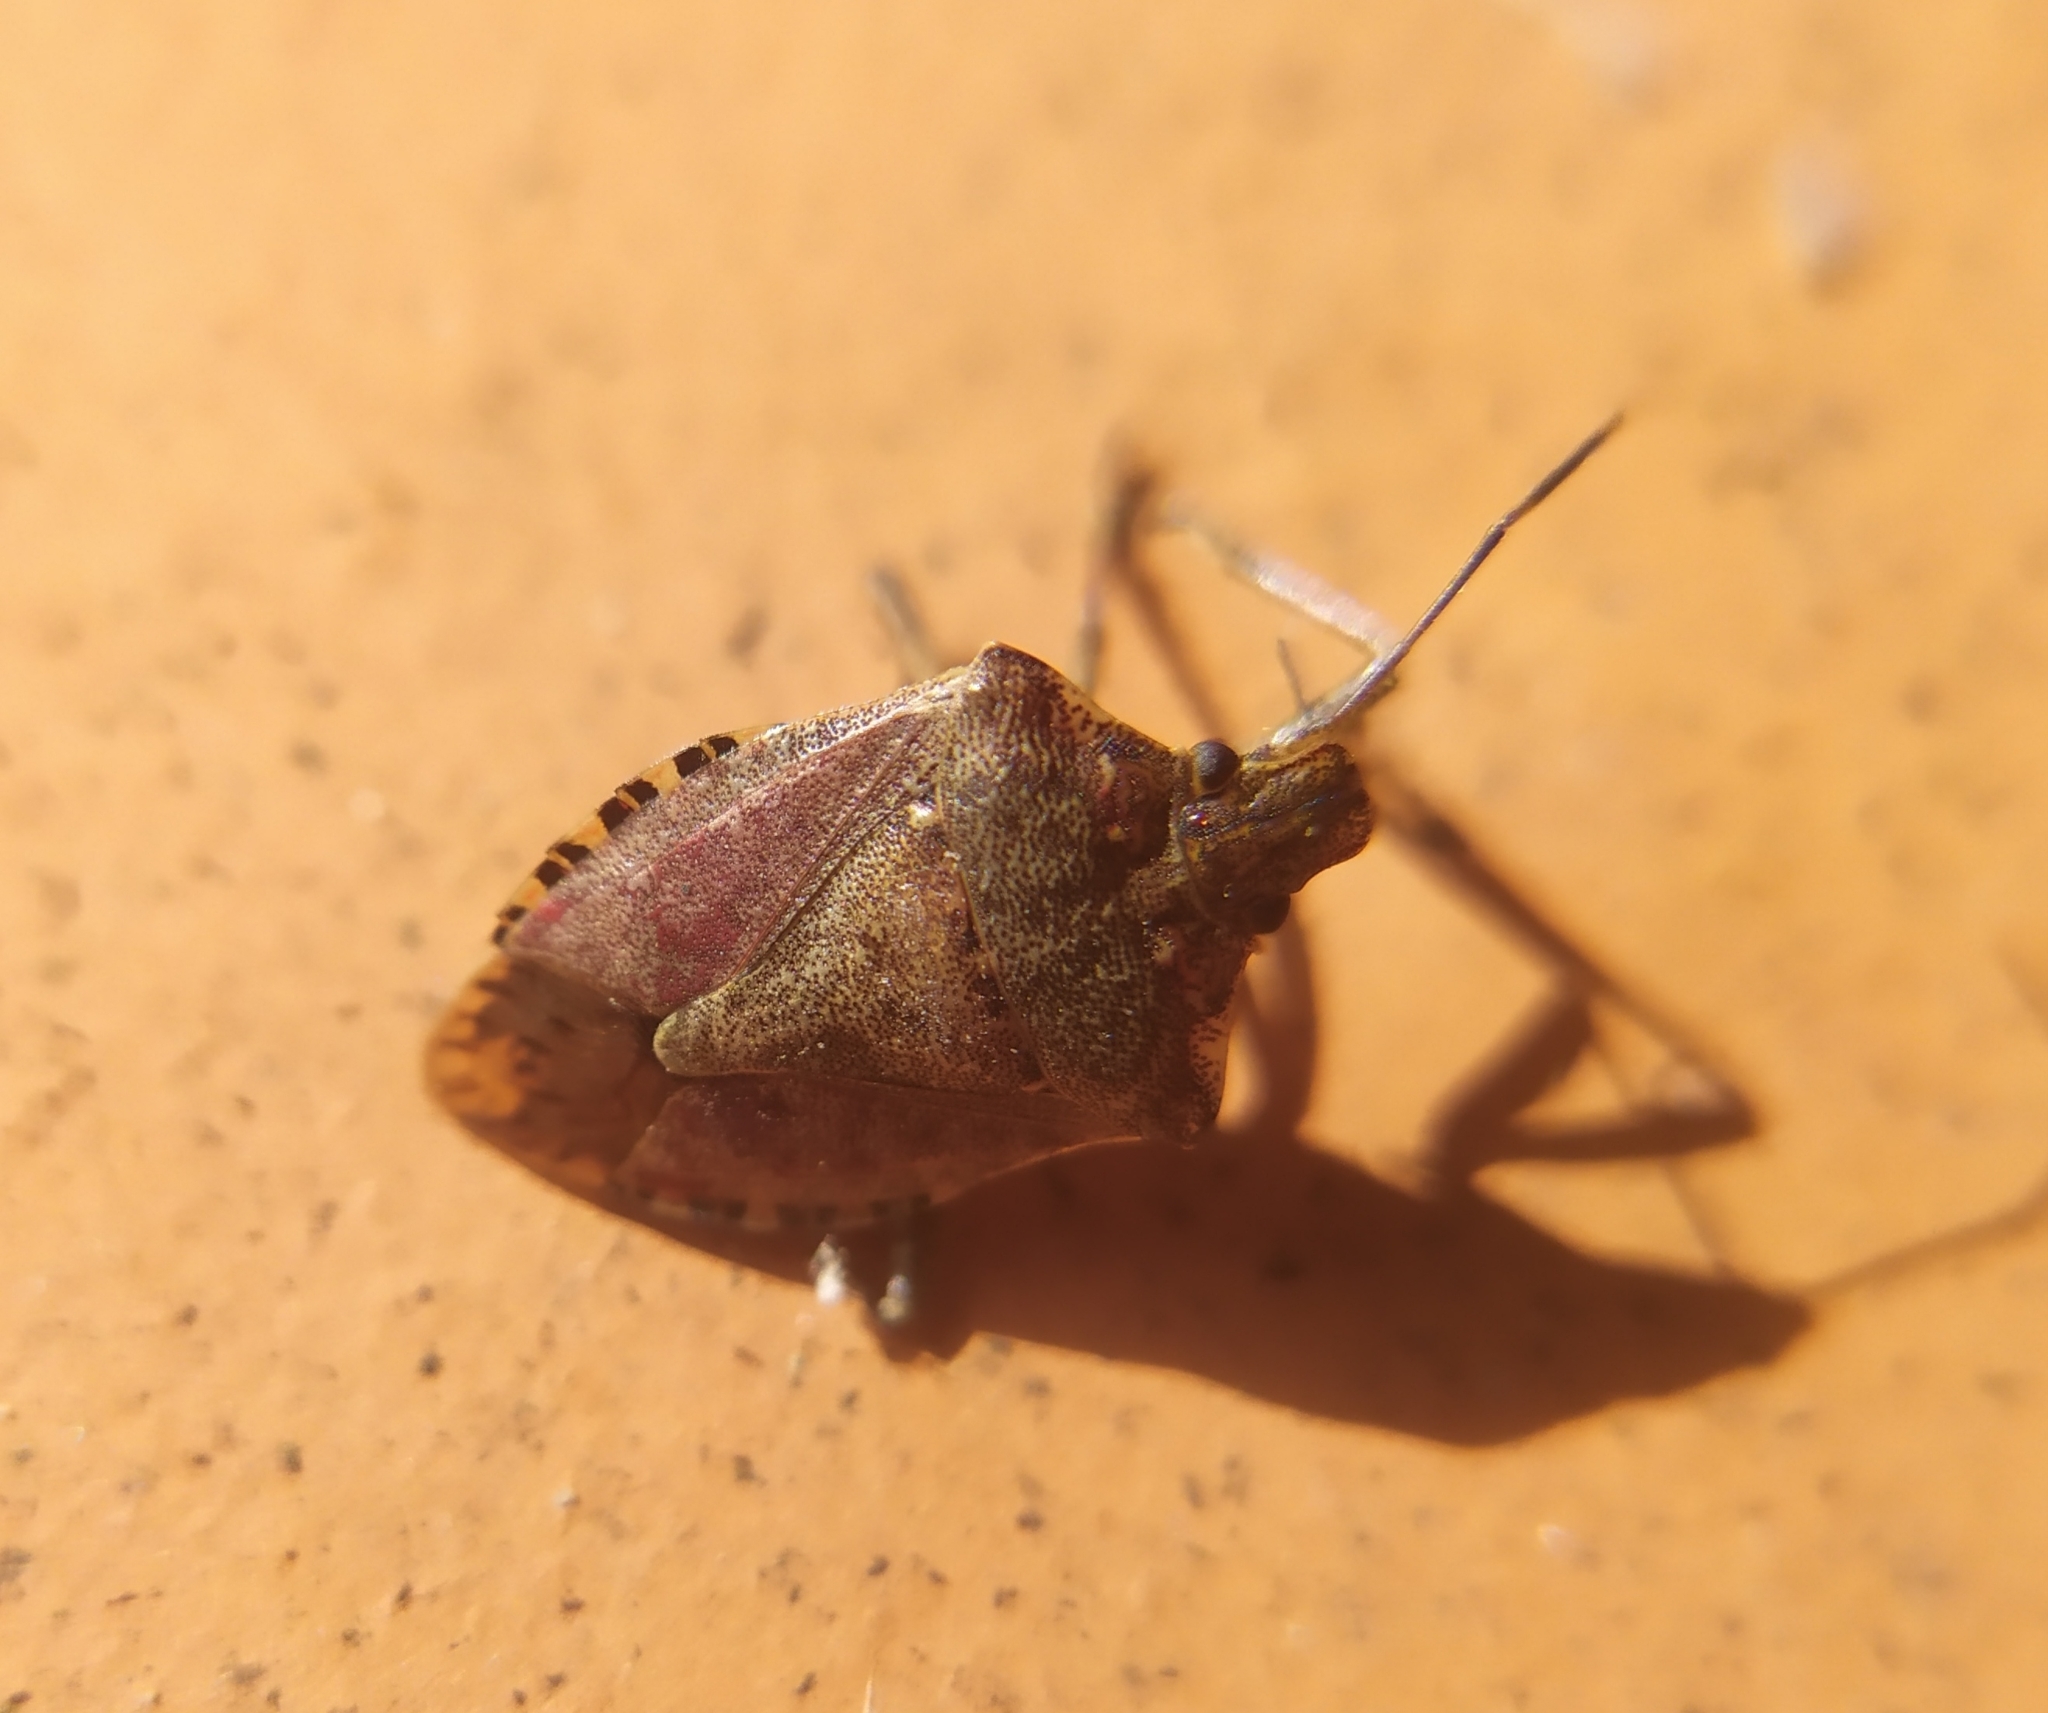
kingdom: Animalia
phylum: Arthropoda
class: Insecta
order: Hemiptera
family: Pentatomidae
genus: Halyomorpha
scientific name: Halyomorpha halys
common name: Brown marmorated stink bug
